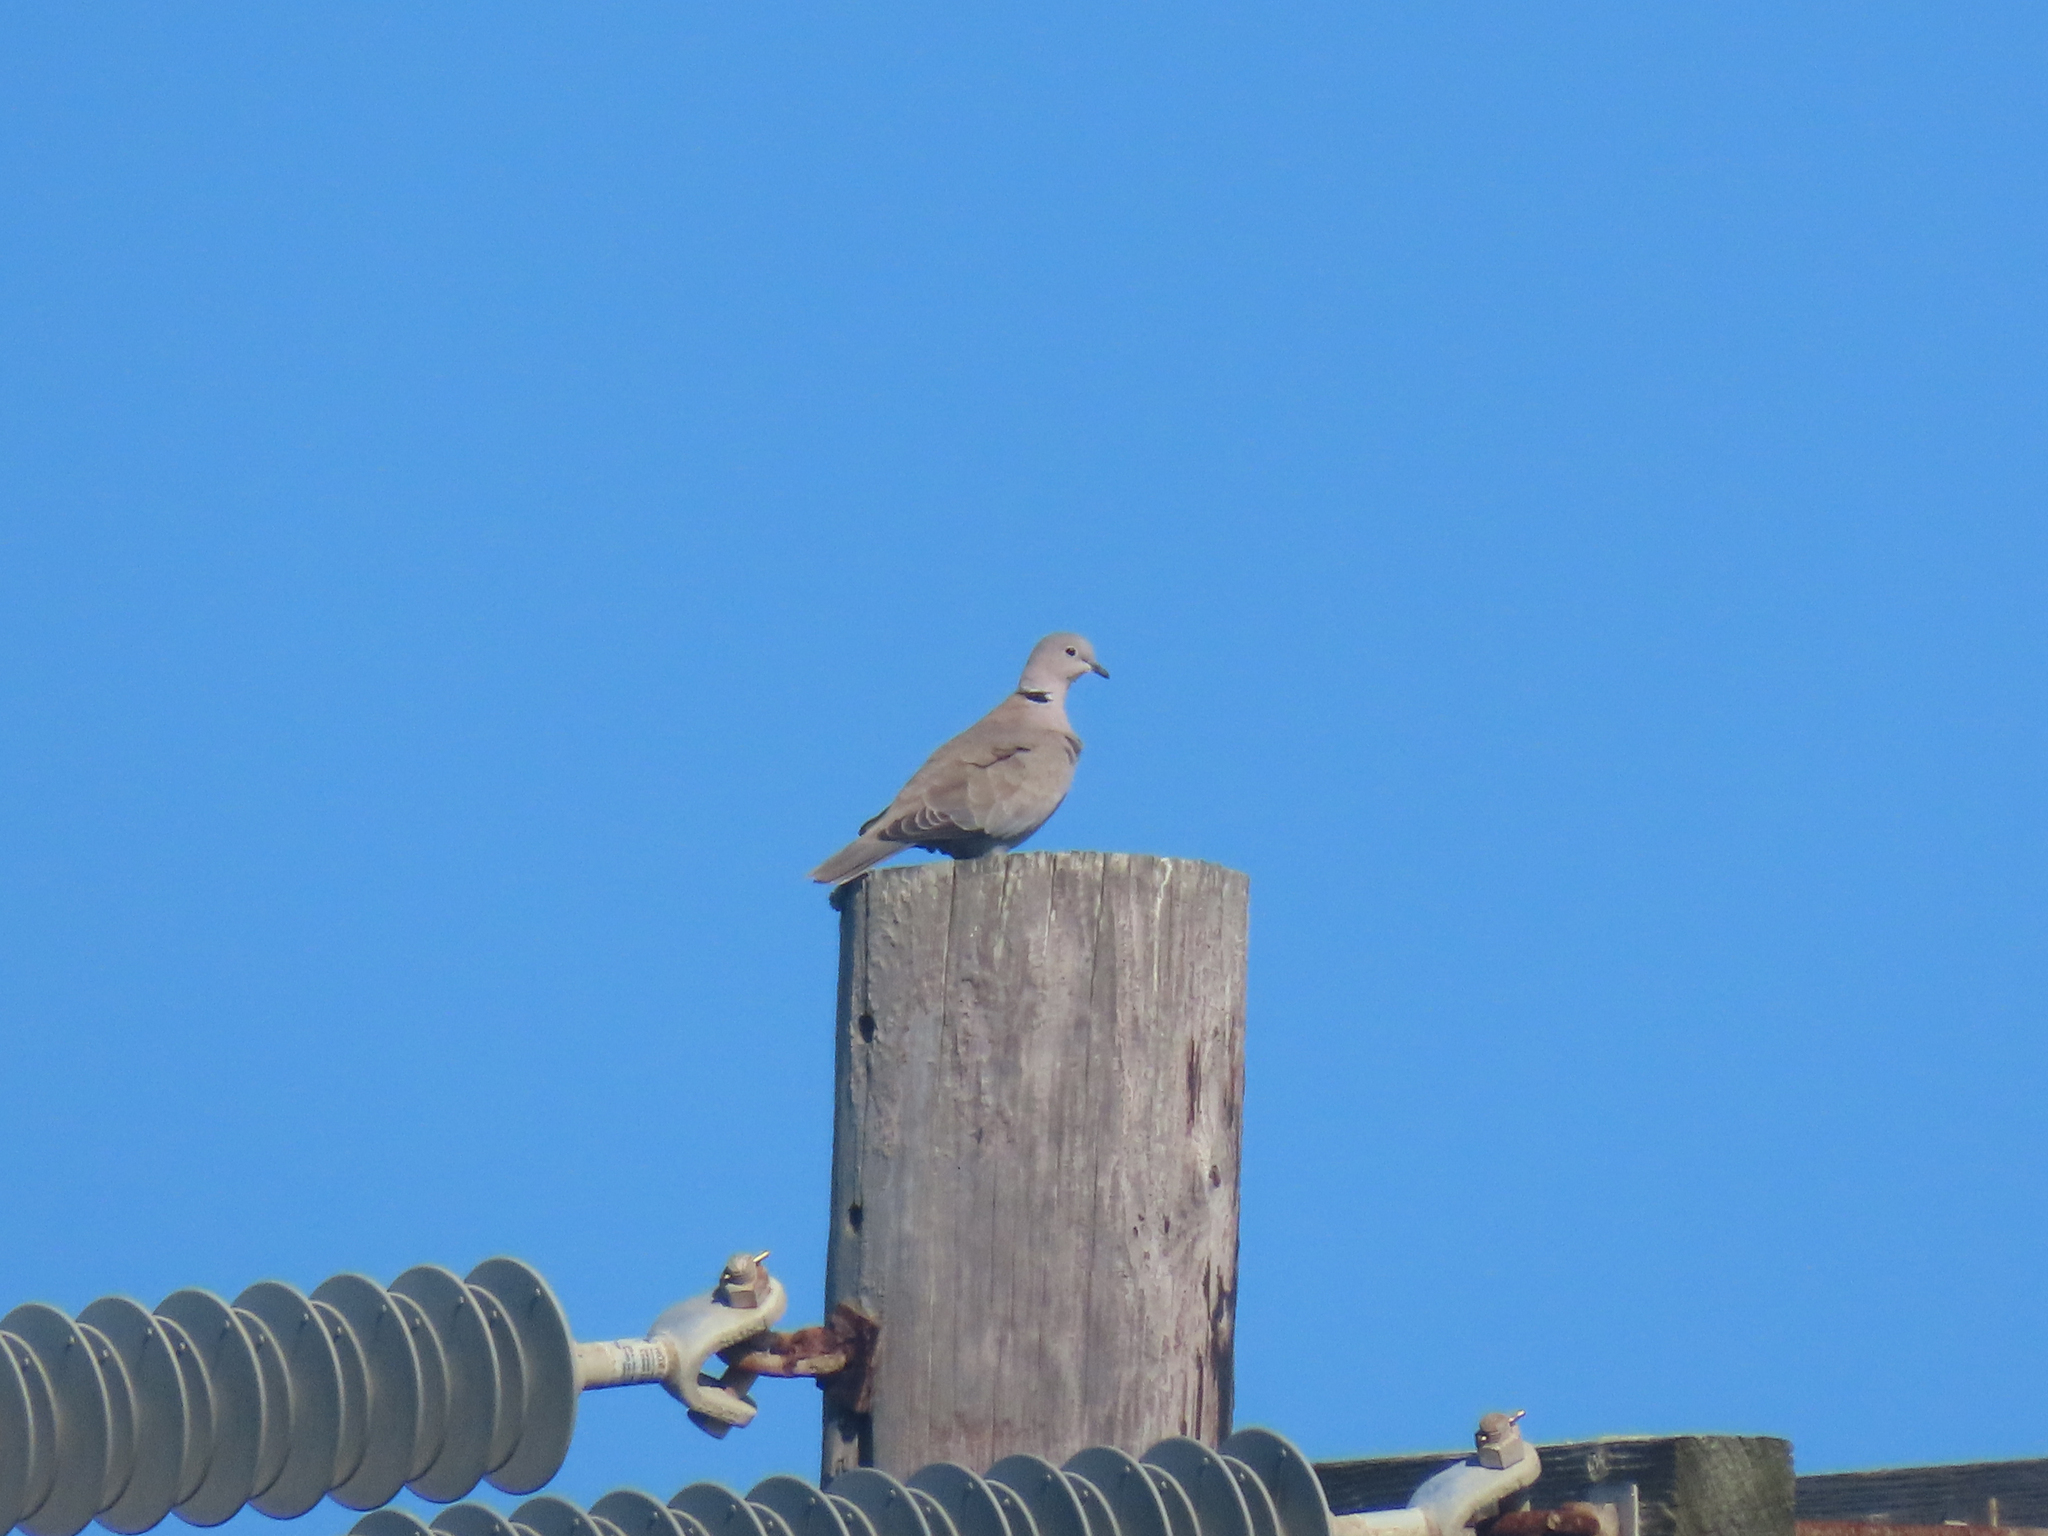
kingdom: Animalia
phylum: Chordata
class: Aves
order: Columbiformes
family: Columbidae
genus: Streptopelia
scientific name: Streptopelia decaocto
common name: Eurasian collared dove
